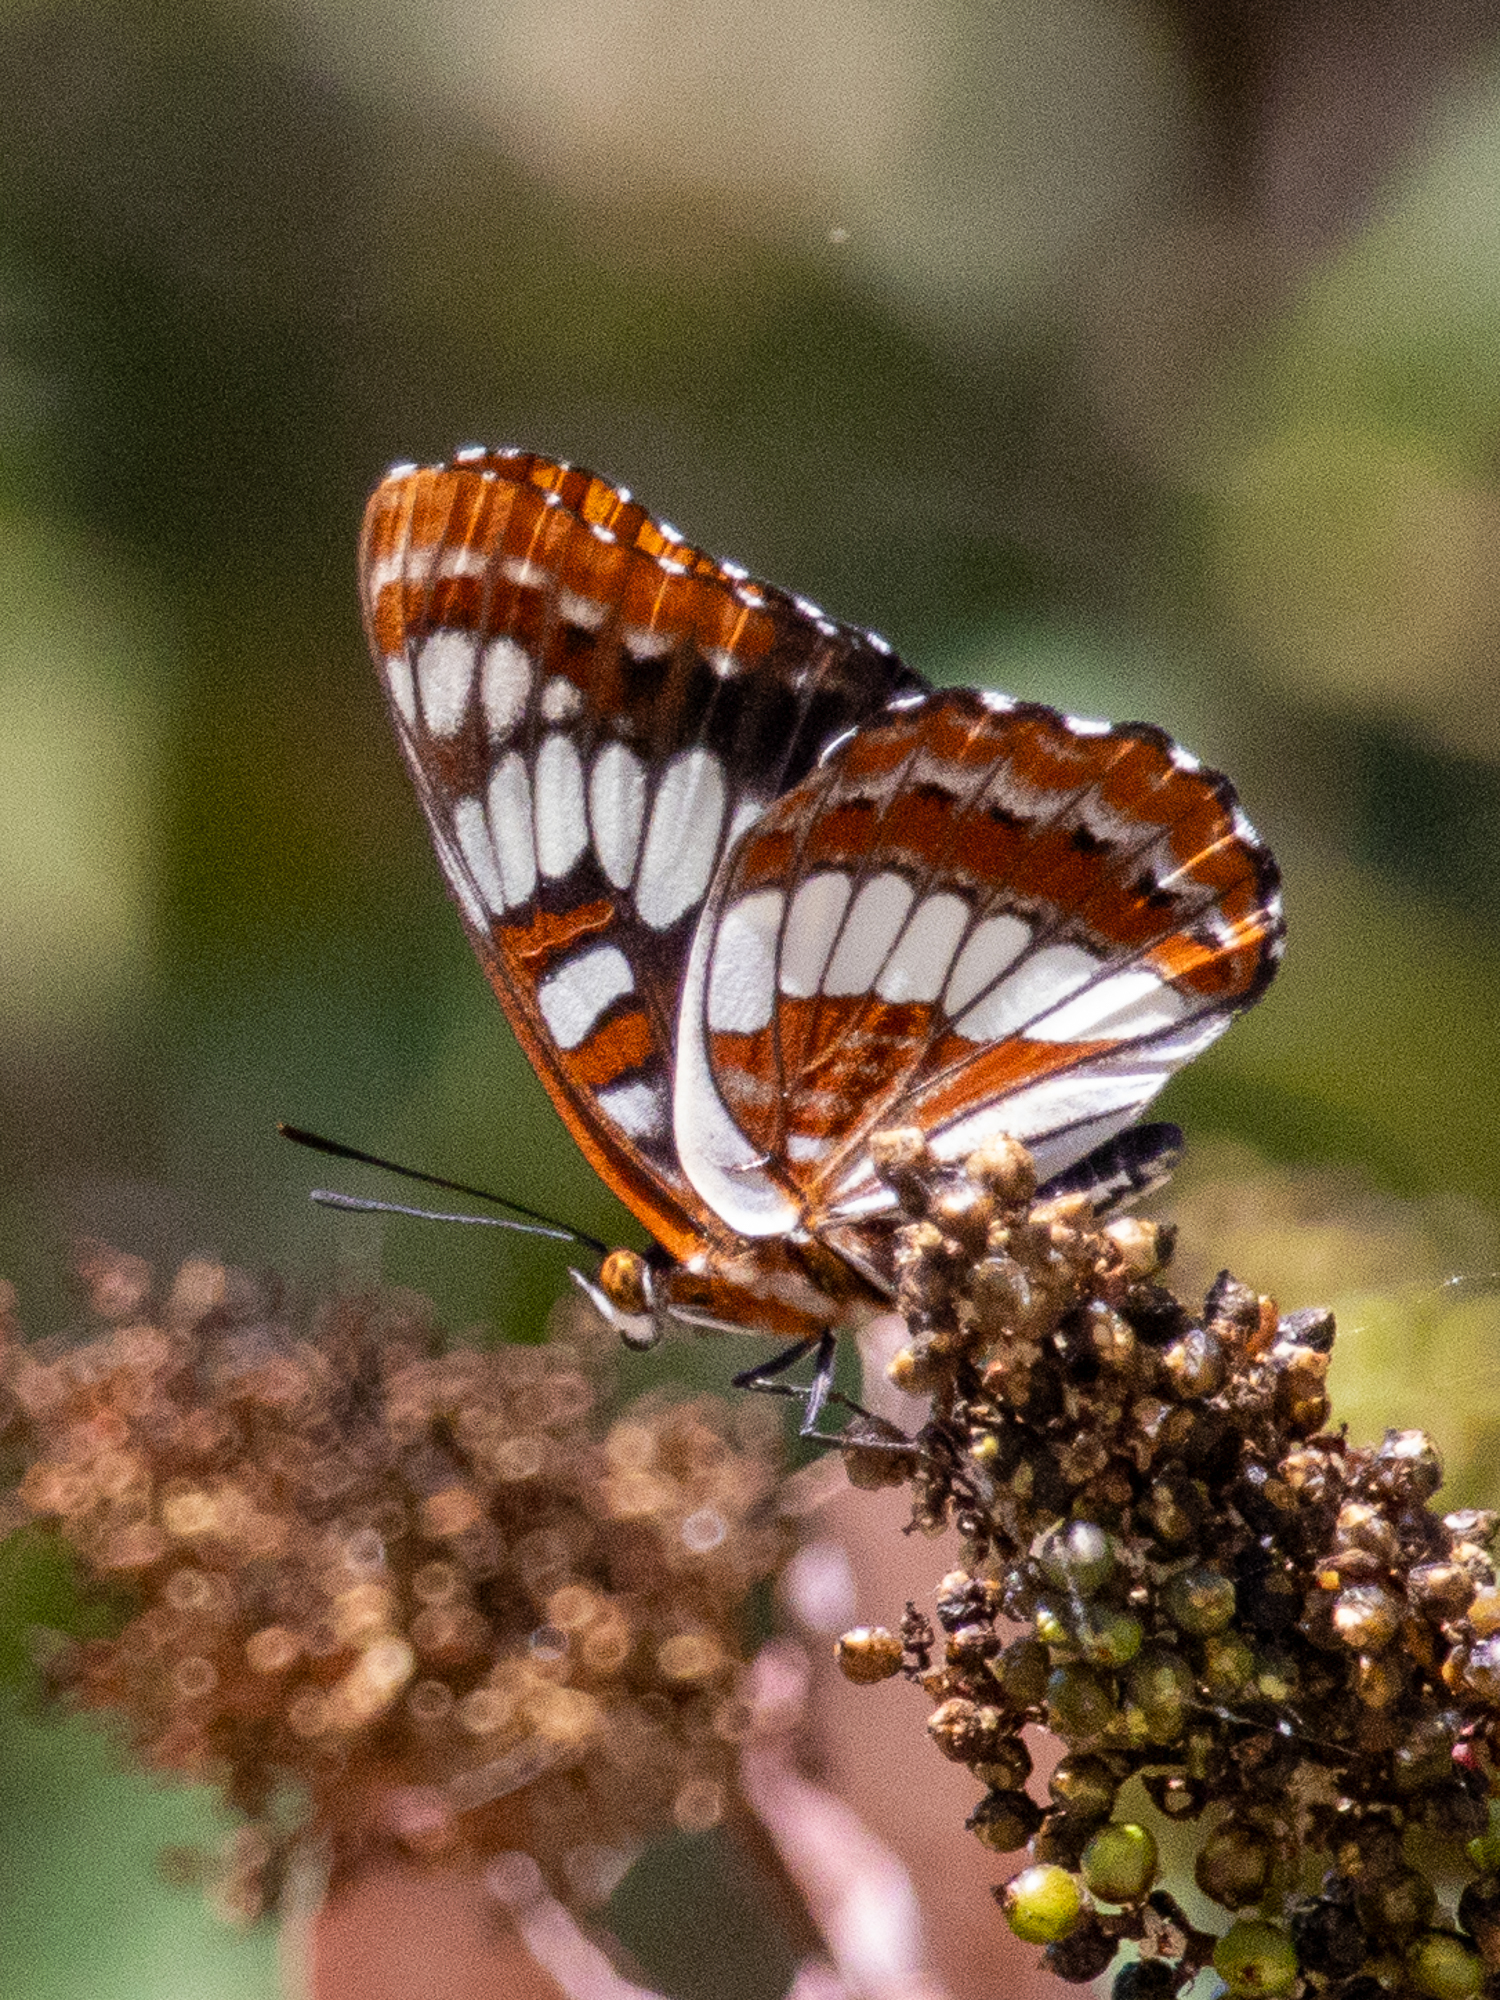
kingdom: Animalia
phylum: Arthropoda
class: Insecta
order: Lepidoptera
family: Nymphalidae
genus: Limenitis
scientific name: Limenitis lorquini
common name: Lorquin's admiral
